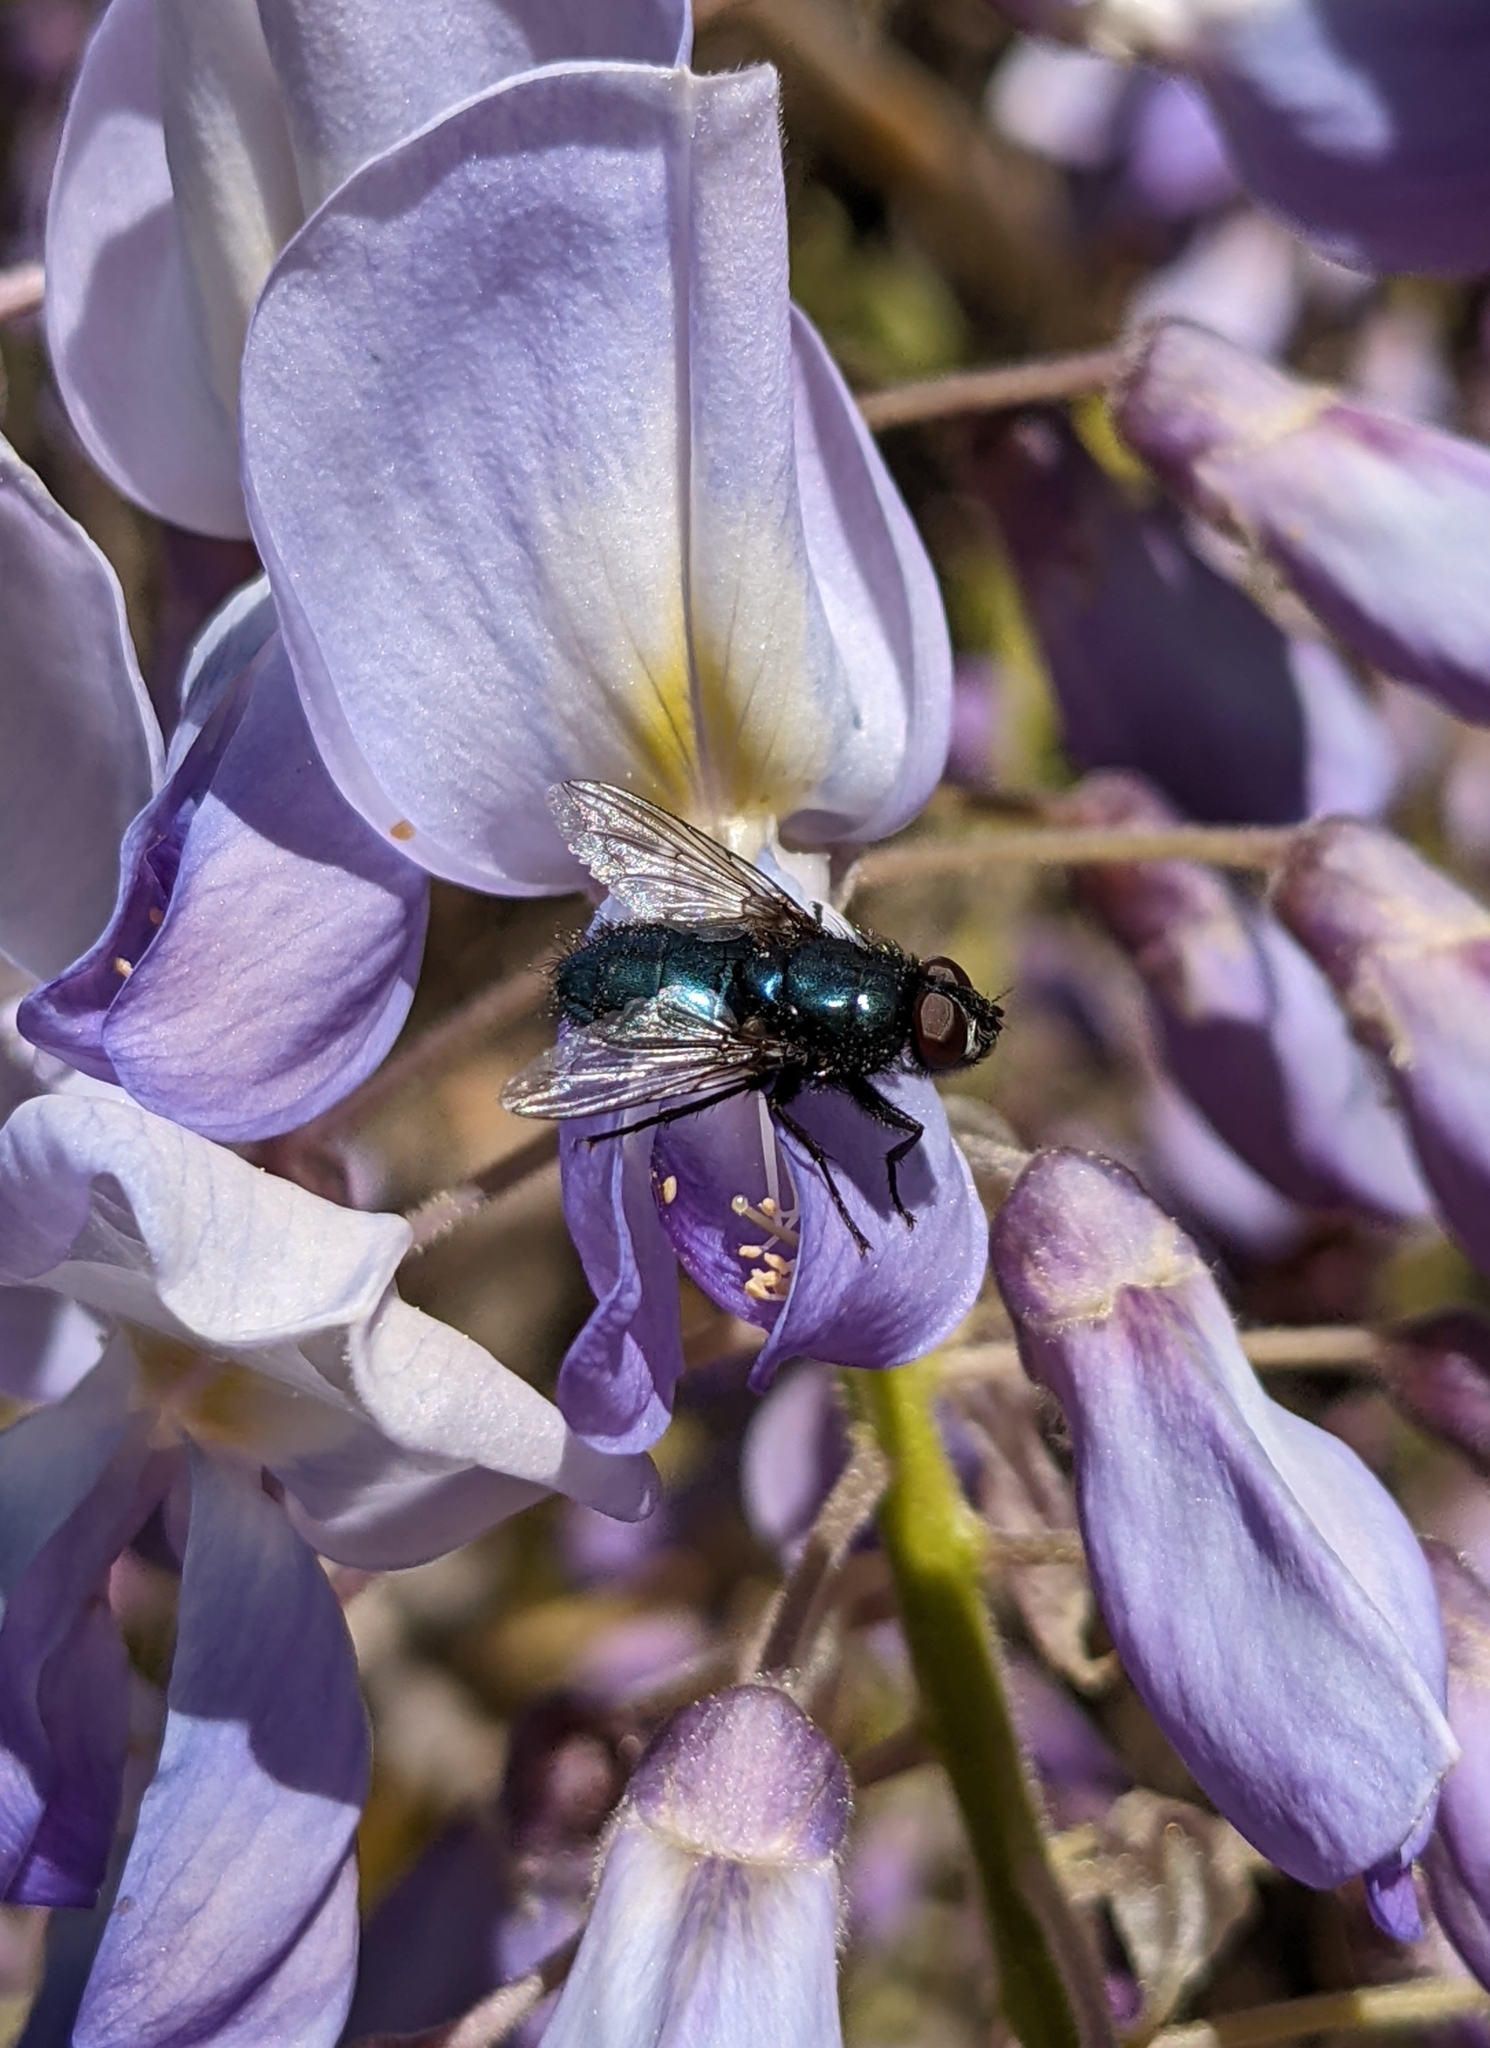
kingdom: Animalia
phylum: Arthropoda
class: Insecta
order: Diptera
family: Calliphoridae
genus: Protophormia
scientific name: Protophormia terraenovae
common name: Blackbottle
